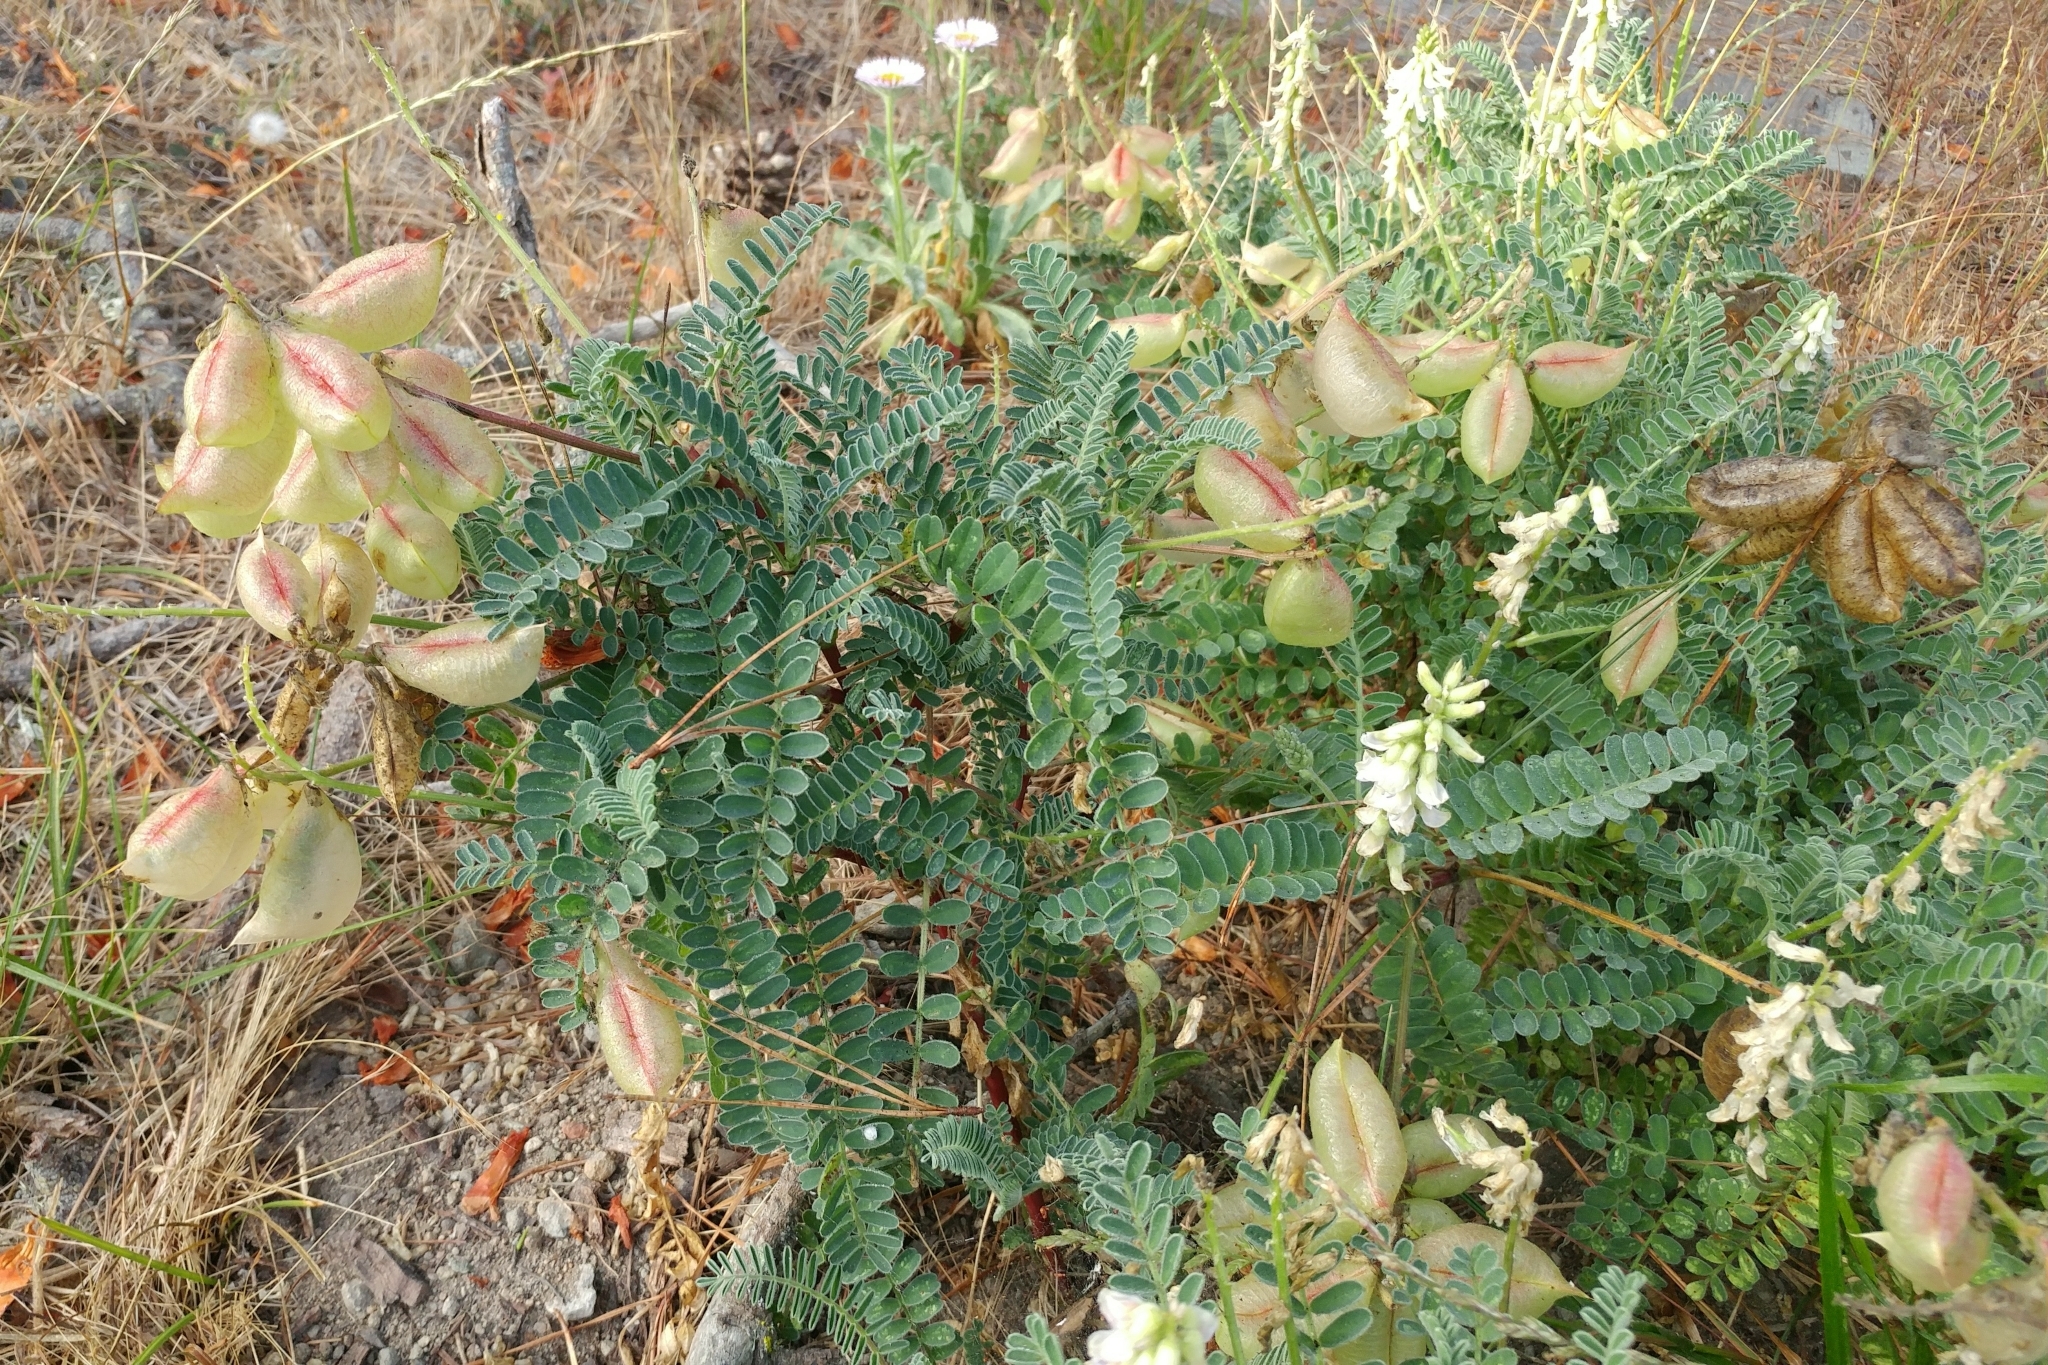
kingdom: Plantae
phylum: Tracheophyta
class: Magnoliopsida
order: Fabales
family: Fabaceae
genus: Astragalus
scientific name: Astragalus nuttallii
